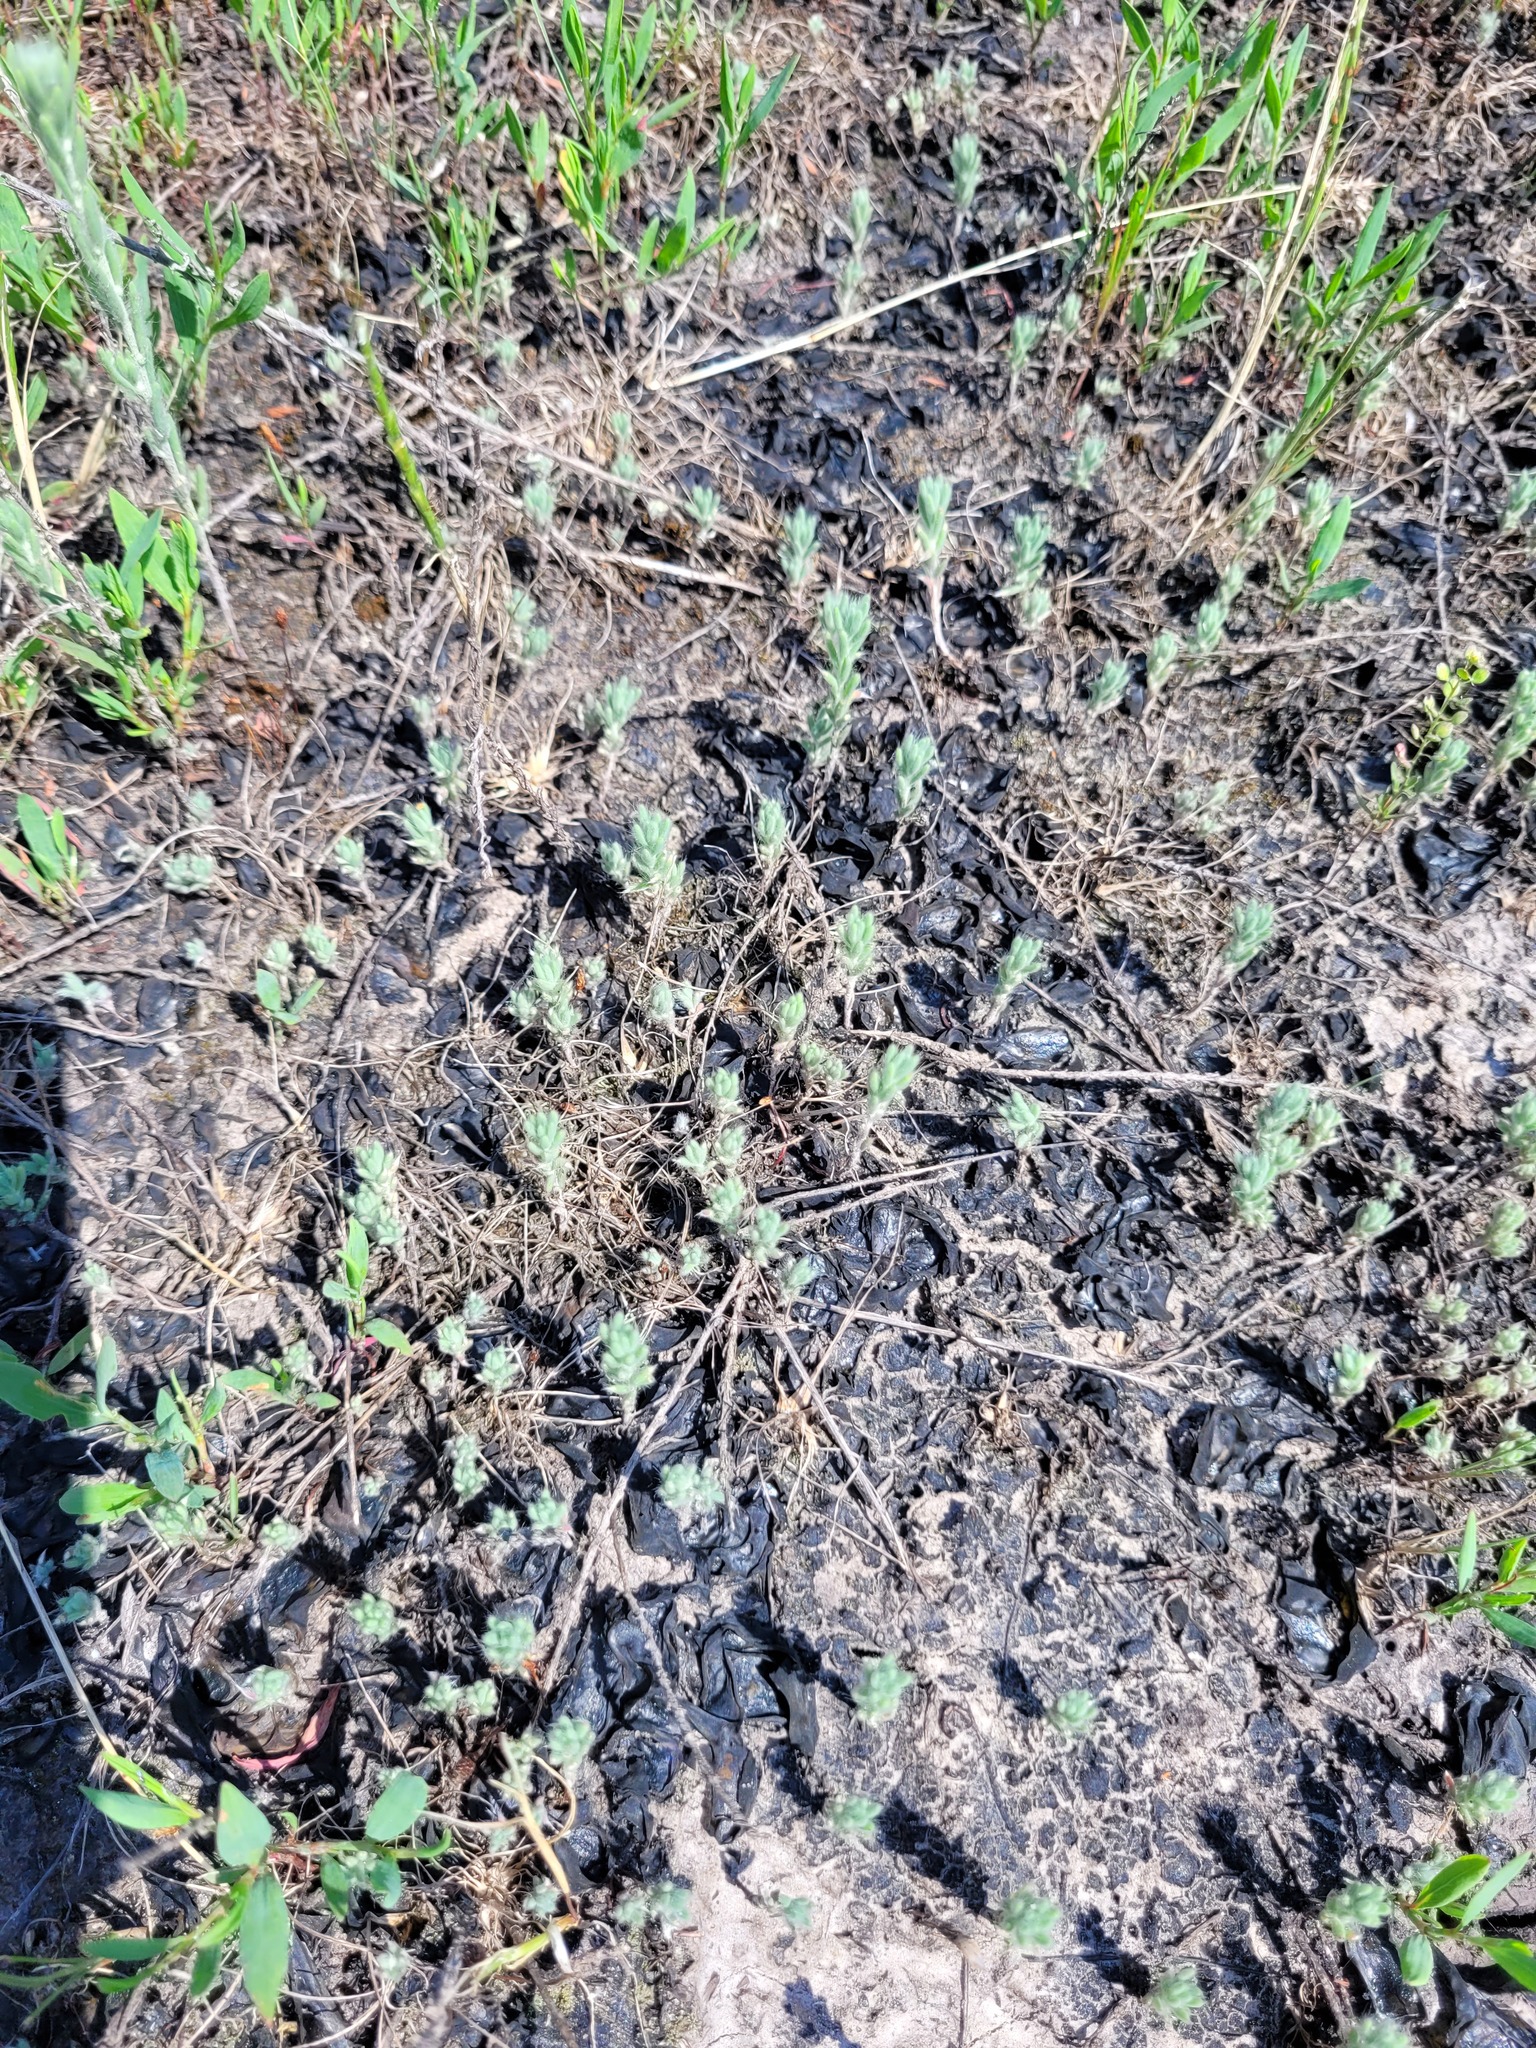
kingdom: Plantae
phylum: Tracheophyta
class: Magnoliopsida
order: Caryophyllales
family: Amaranthaceae
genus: Sedobassia
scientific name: Sedobassia sedoides
